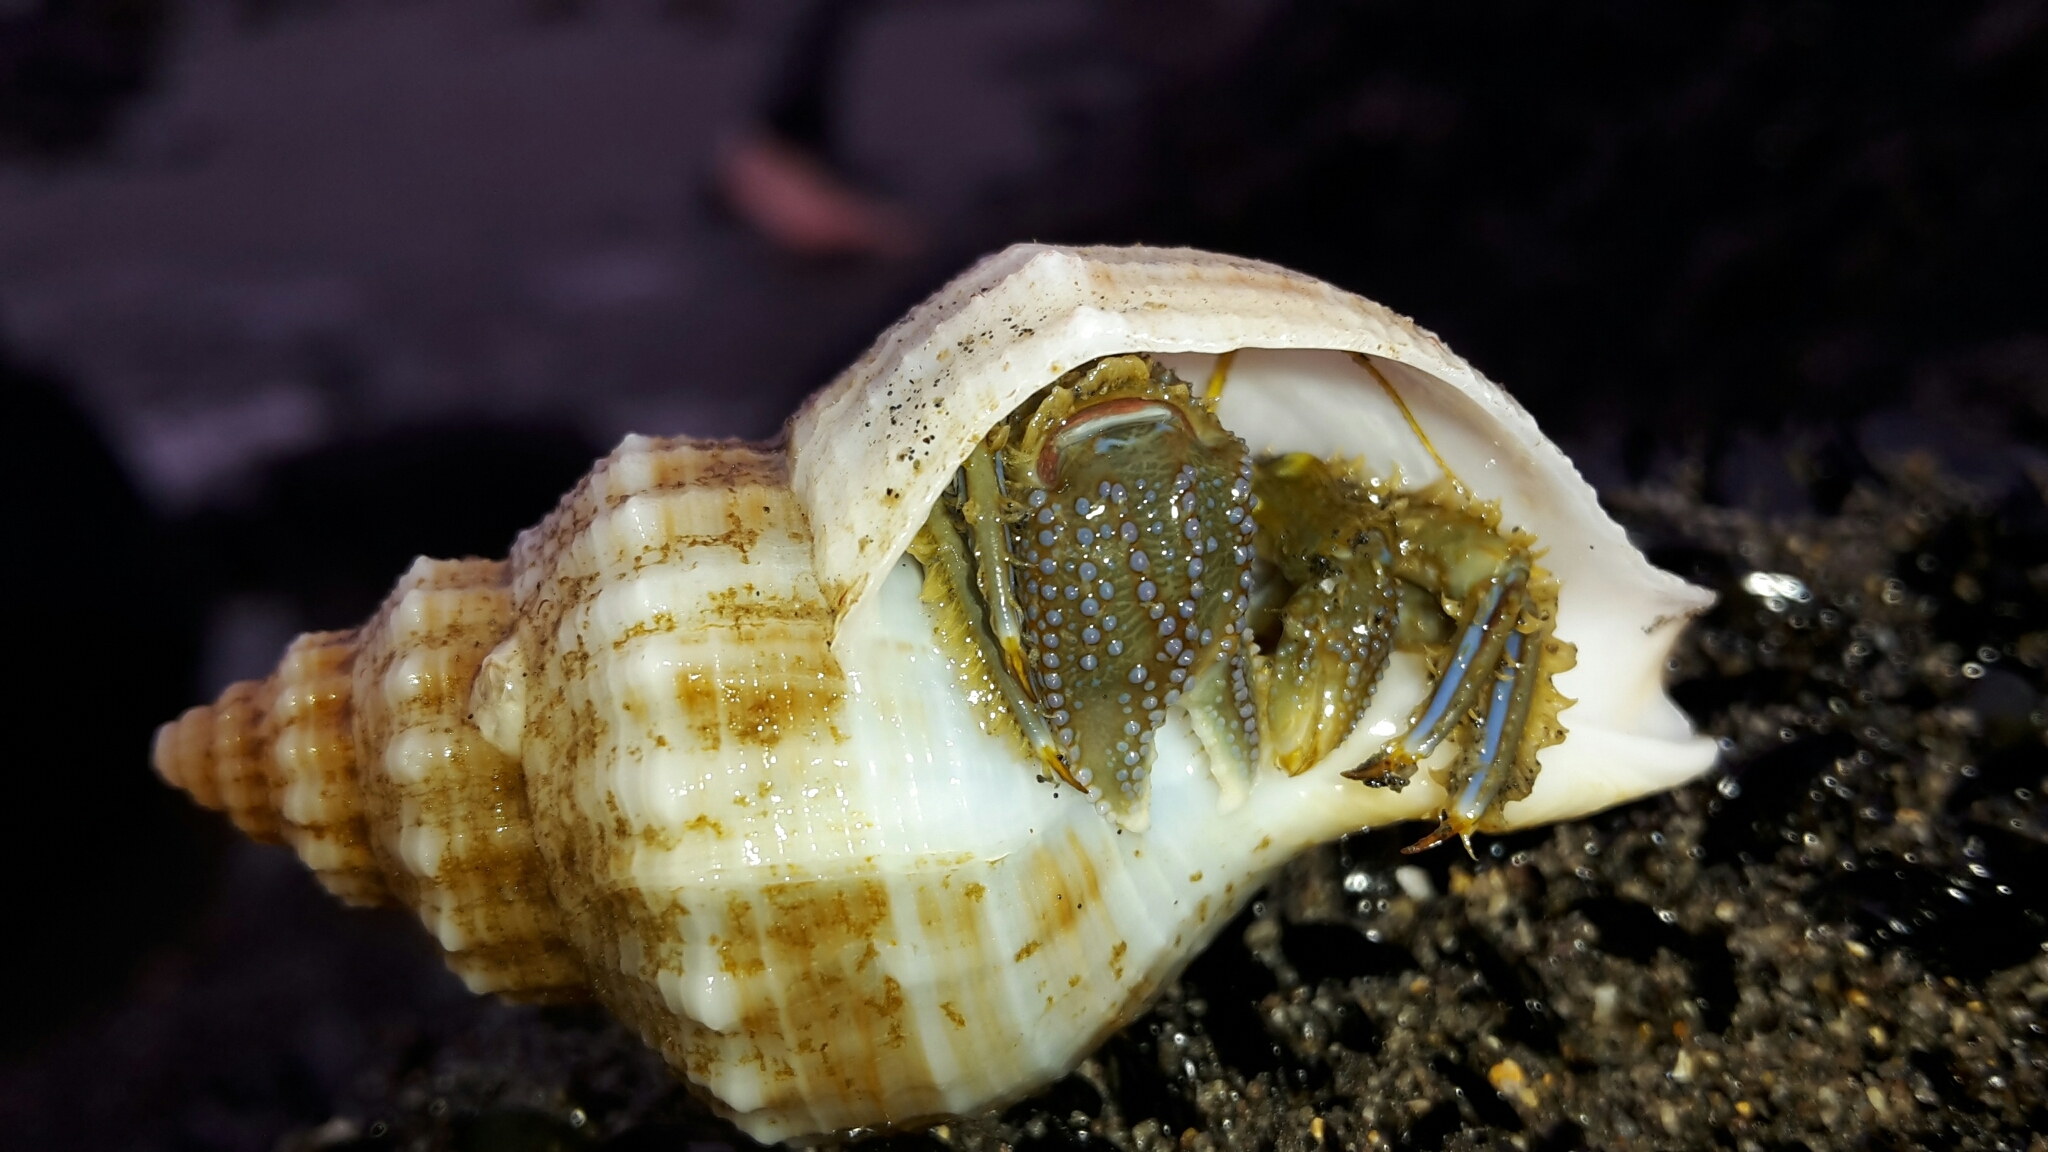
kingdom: Animalia
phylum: Arthropoda
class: Malacostraca
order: Decapoda
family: Paguridae
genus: Pagurus
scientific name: Pagurus novizealandiae
